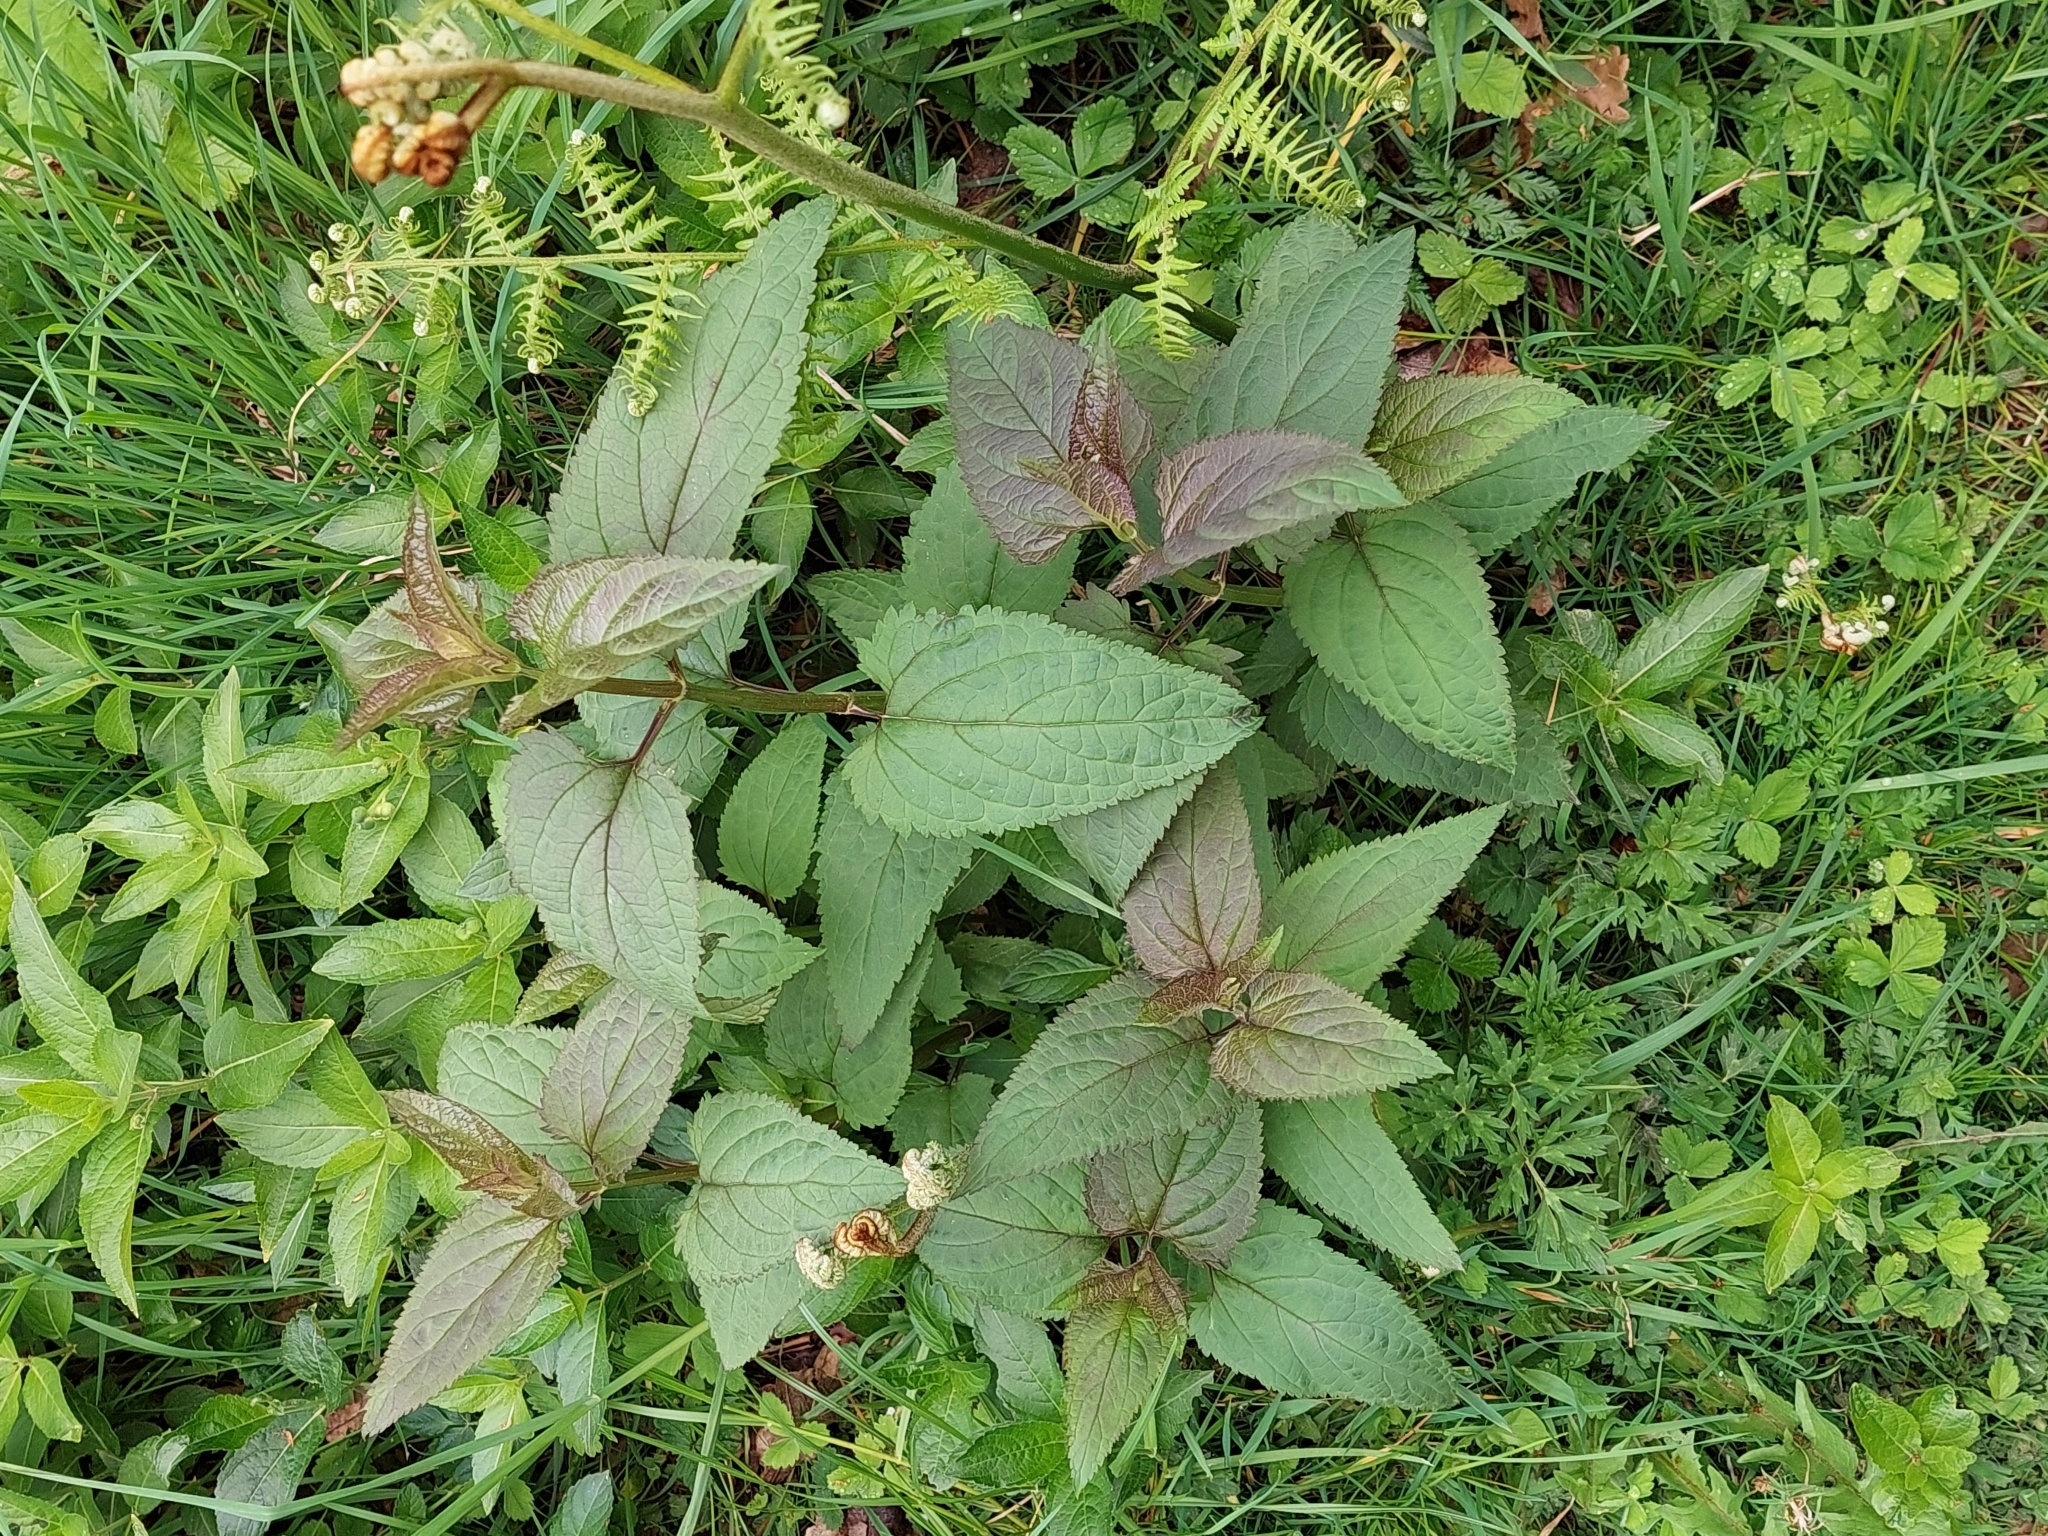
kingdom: Plantae
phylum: Tracheophyta
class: Magnoliopsida
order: Lamiales
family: Scrophulariaceae
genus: Scrophularia
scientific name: Scrophularia nodosa
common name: Common figwort
